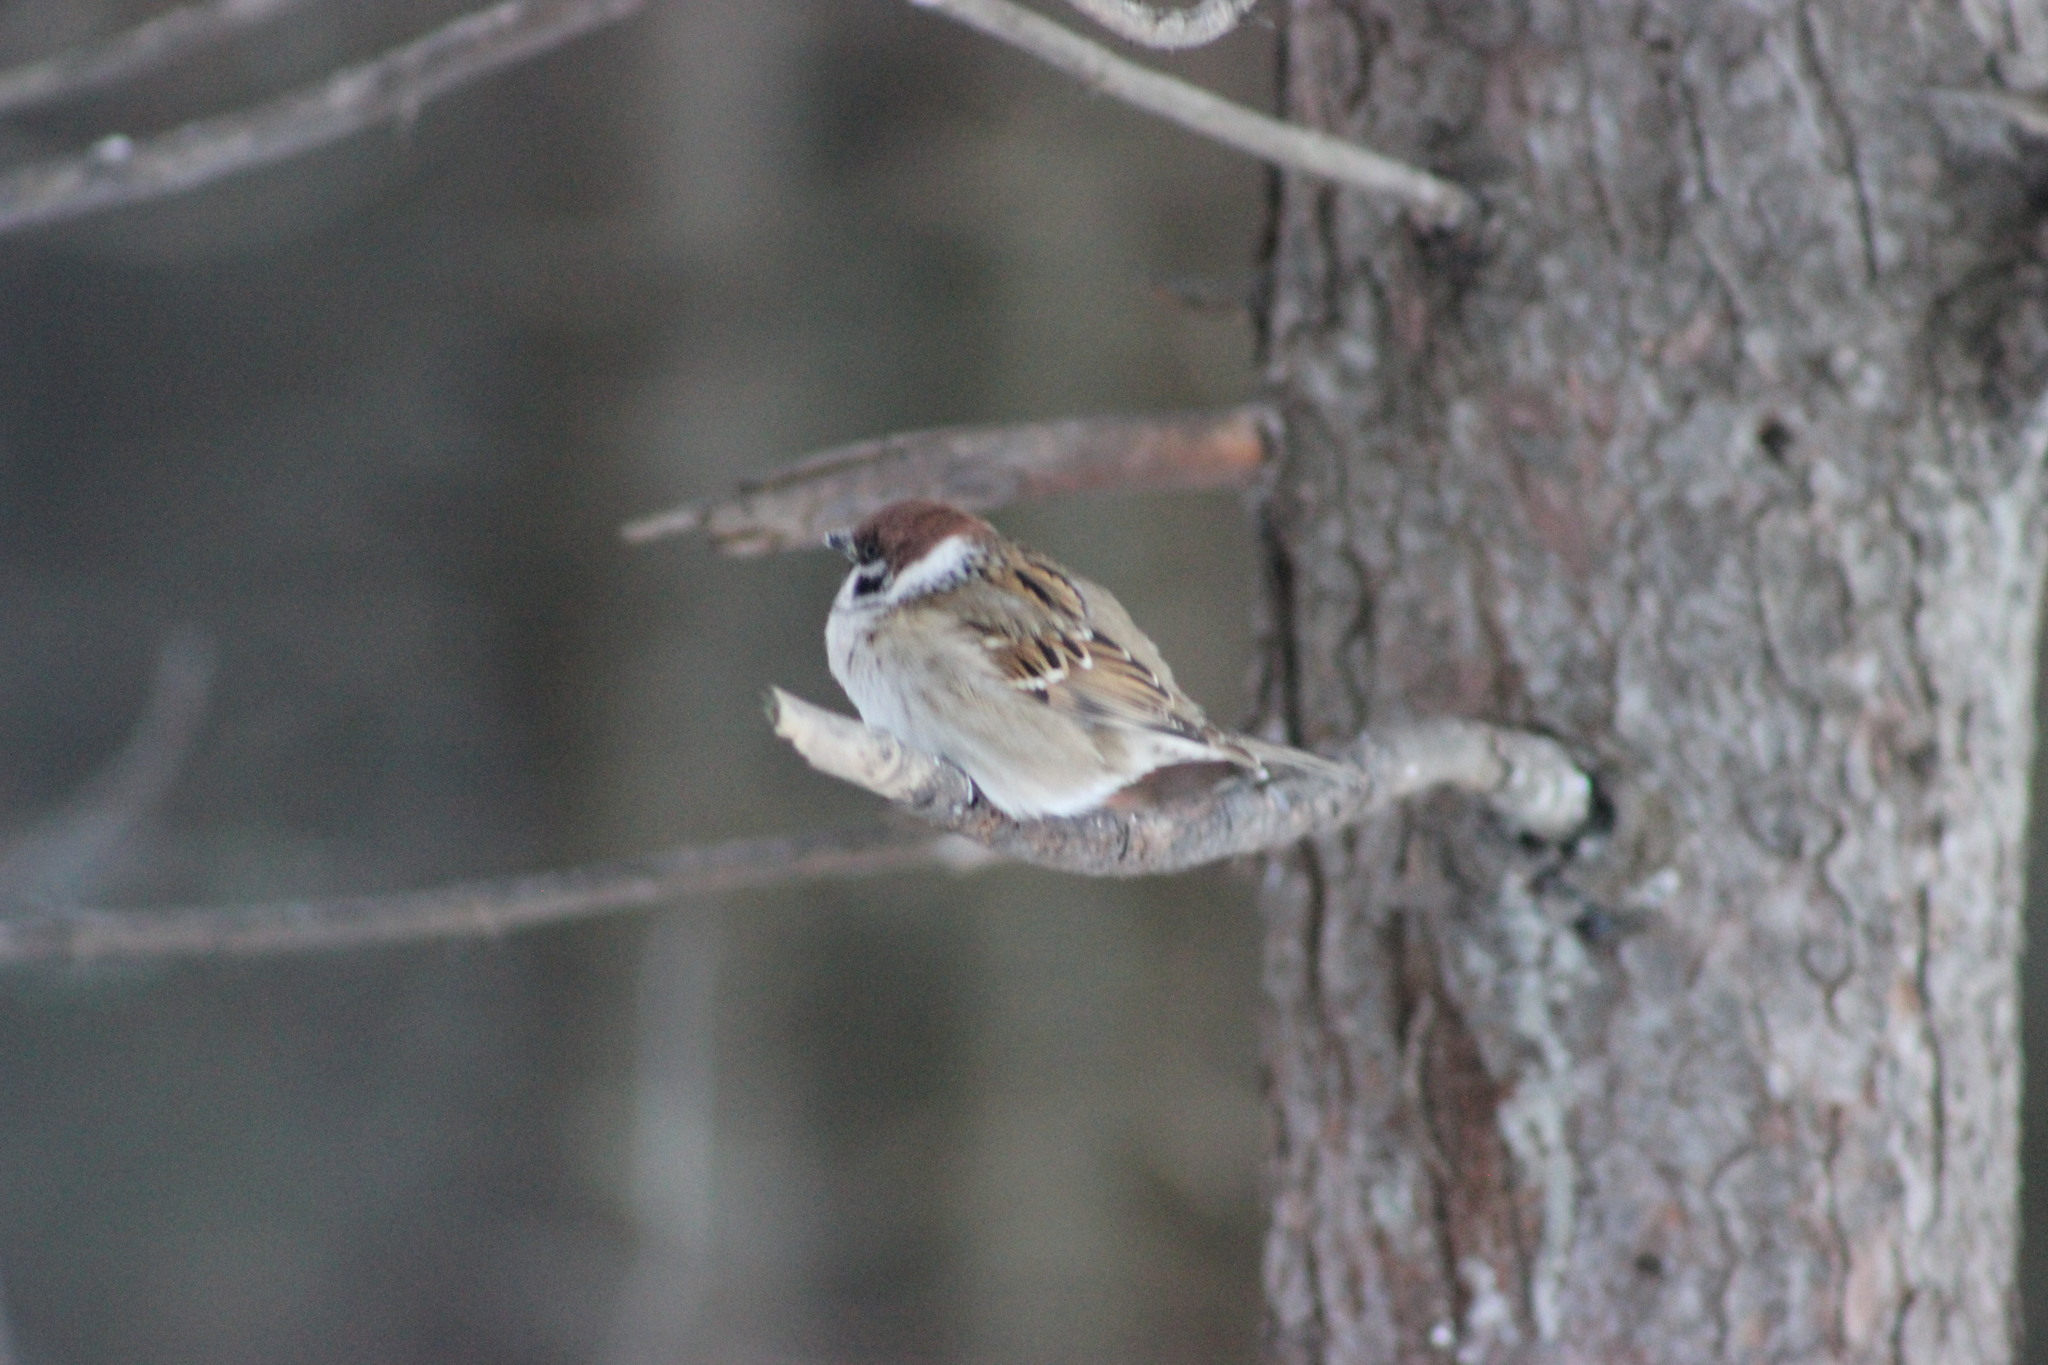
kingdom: Animalia
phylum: Chordata
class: Aves
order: Passeriformes
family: Passeridae
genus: Passer
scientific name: Passer montanus
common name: Eurasian tree sparrow
